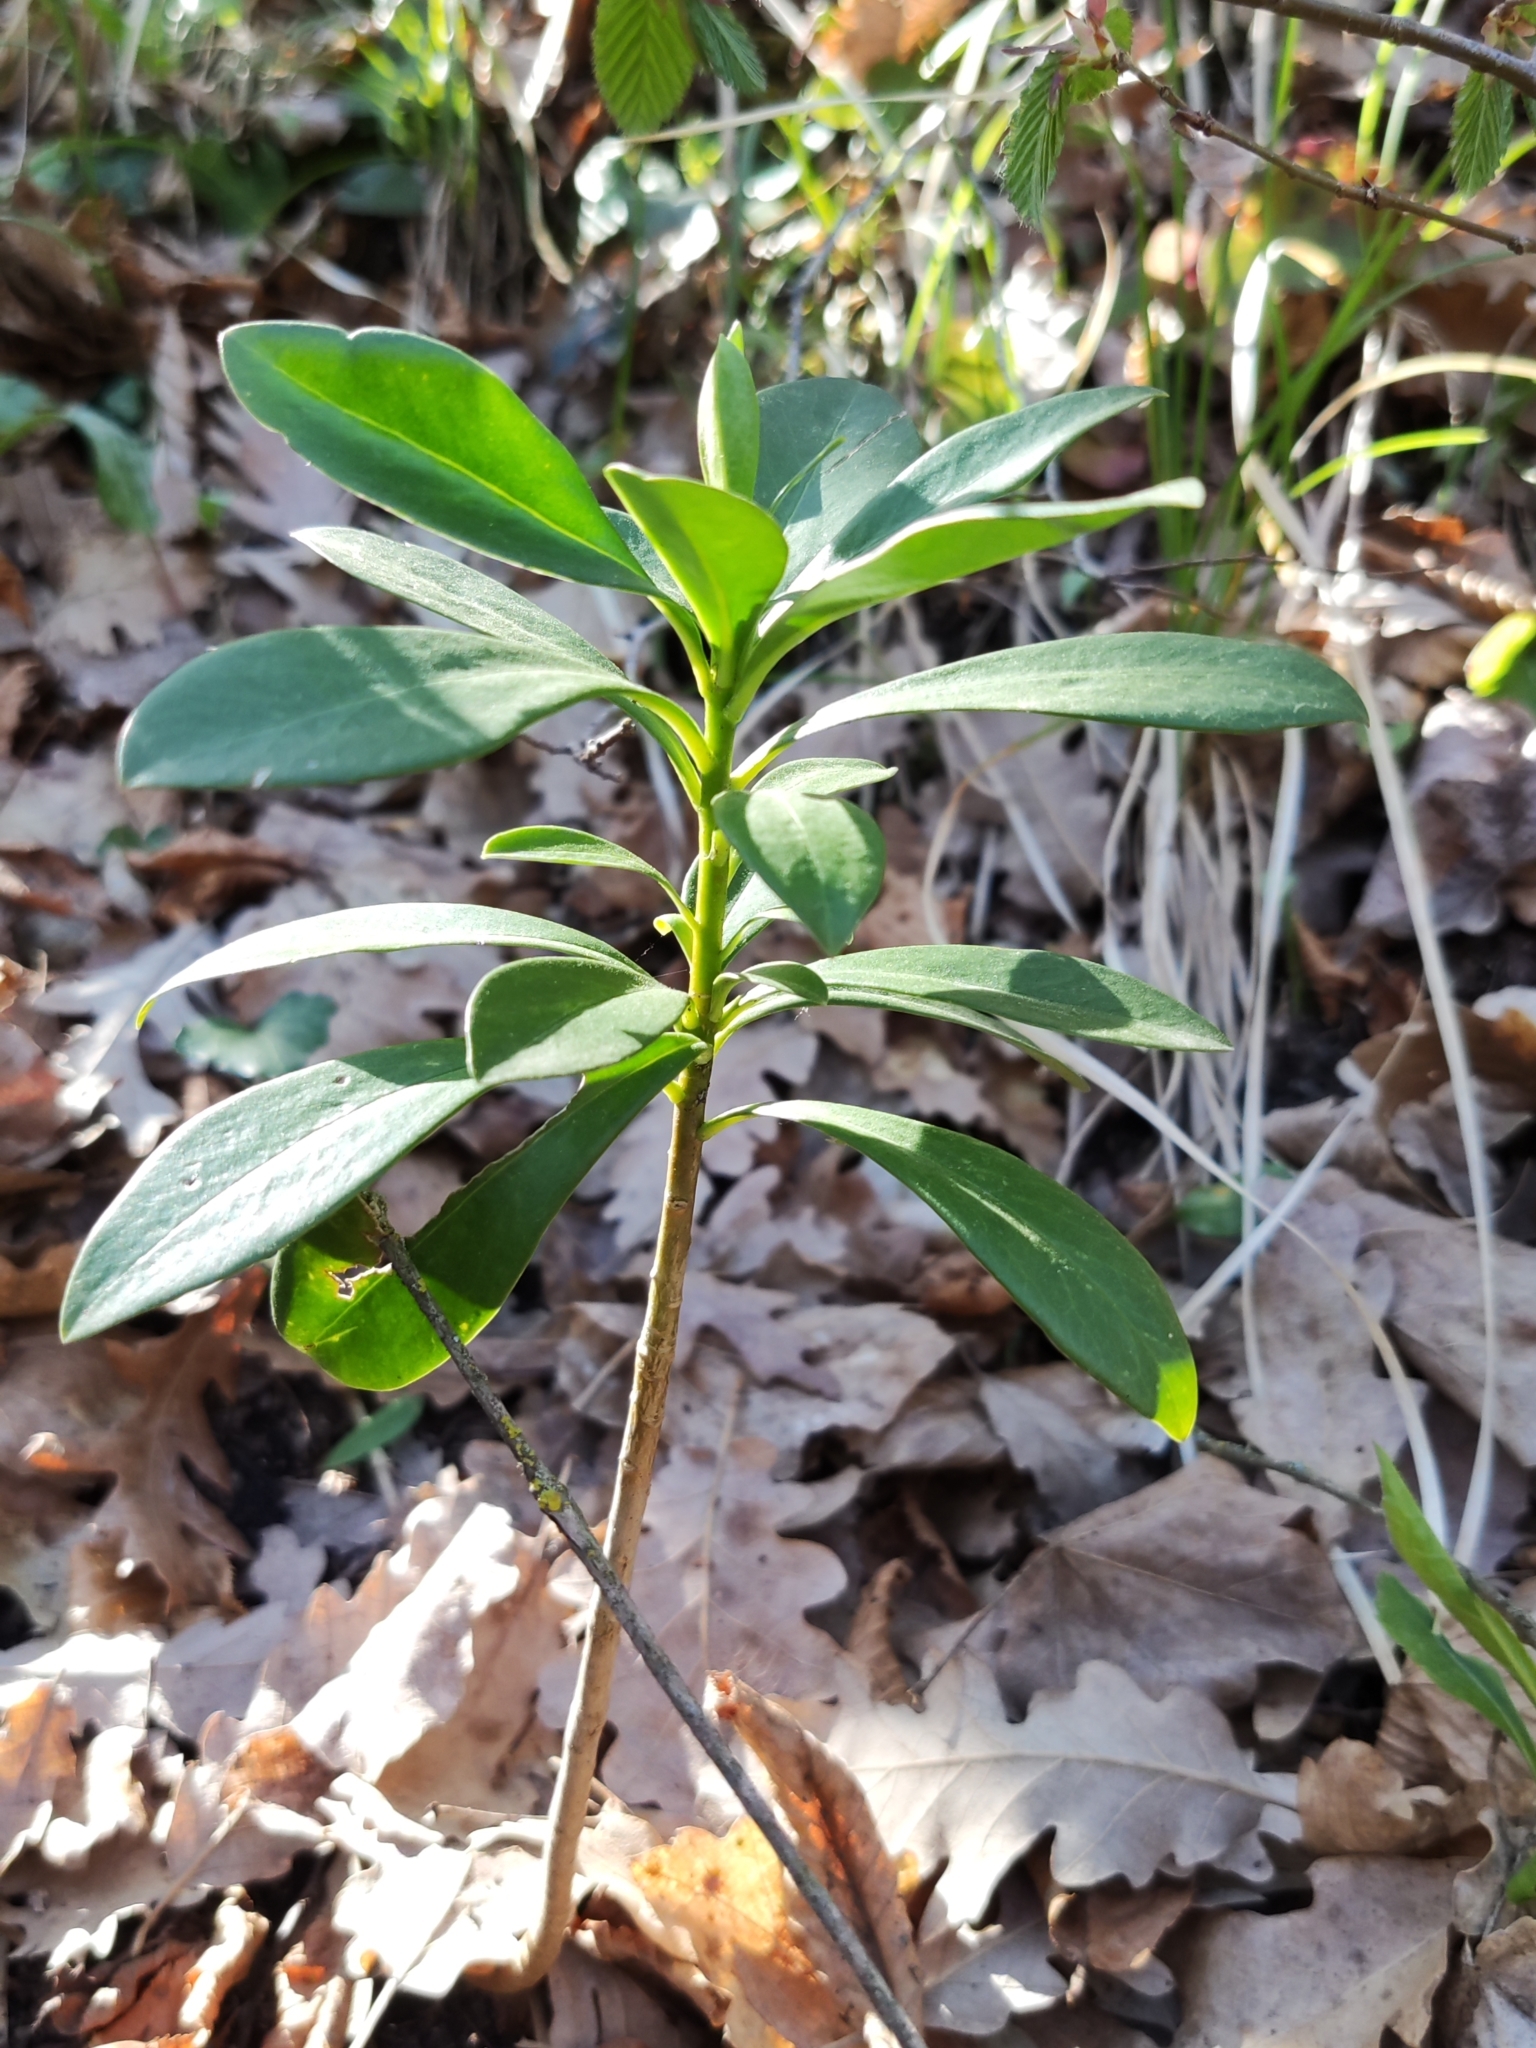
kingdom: Plantae
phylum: Tracheophyta
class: Magnoliopsida
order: Malvales
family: Thymelaeaceae
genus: Daphne
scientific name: Daphne laureola
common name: Spurge-laurel
